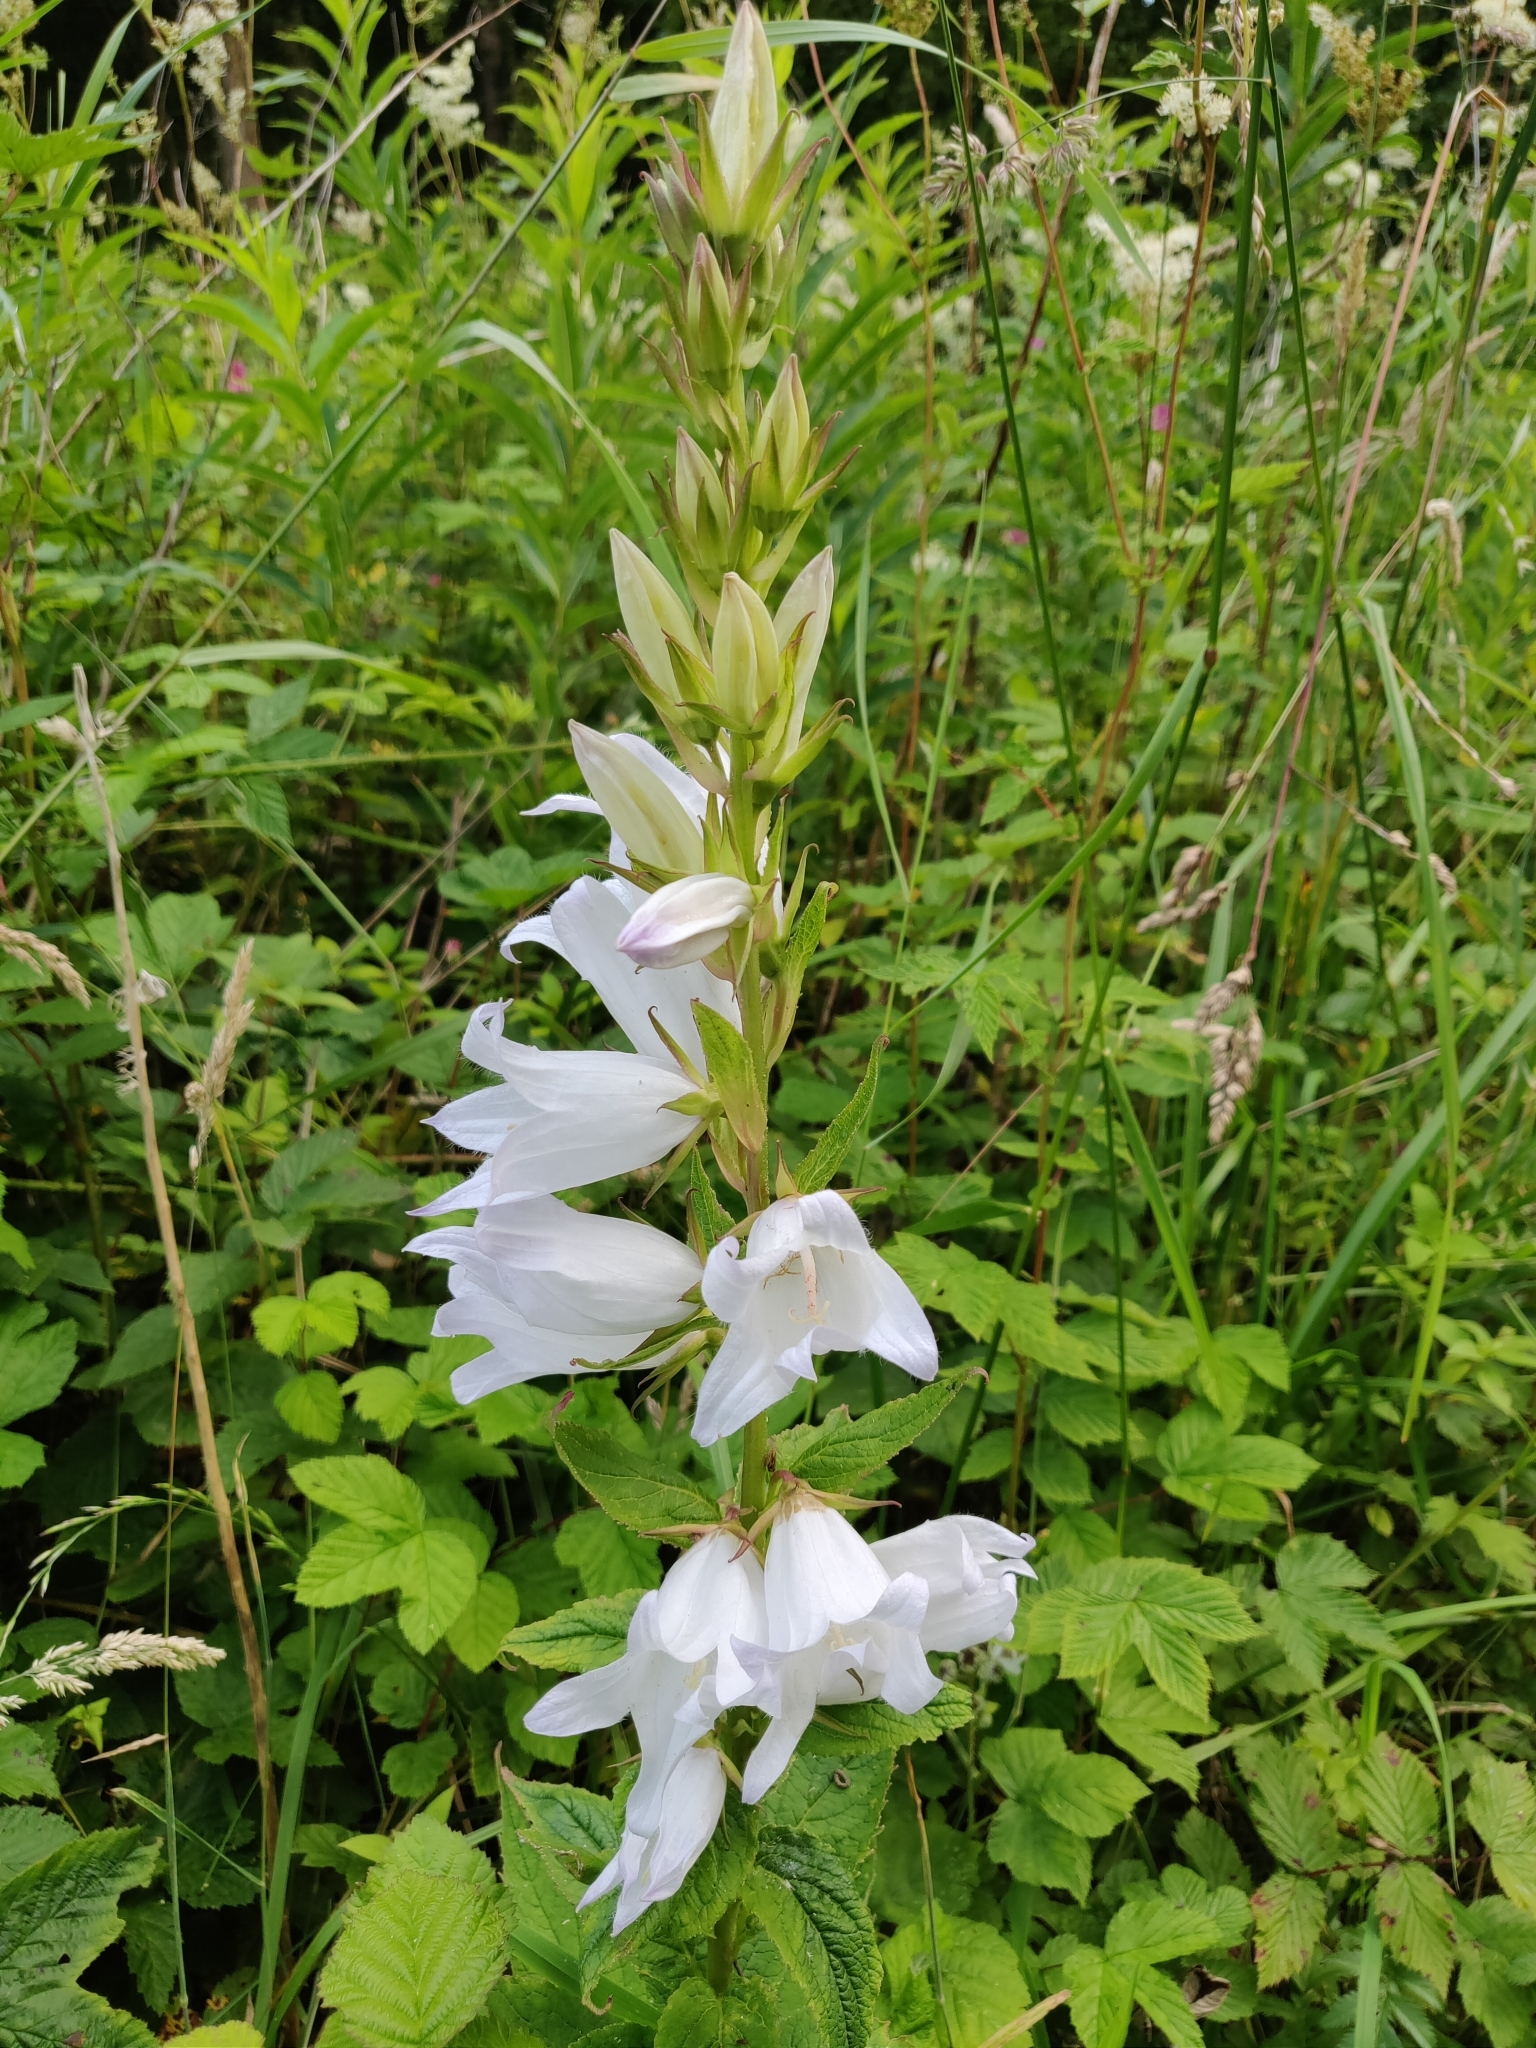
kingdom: Plantae
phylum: Tracheophyta
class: Magnoliopsida
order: Asterales
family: Campanulaceae
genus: Campanula
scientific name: Campanula latifolia
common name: Giant bellflower
